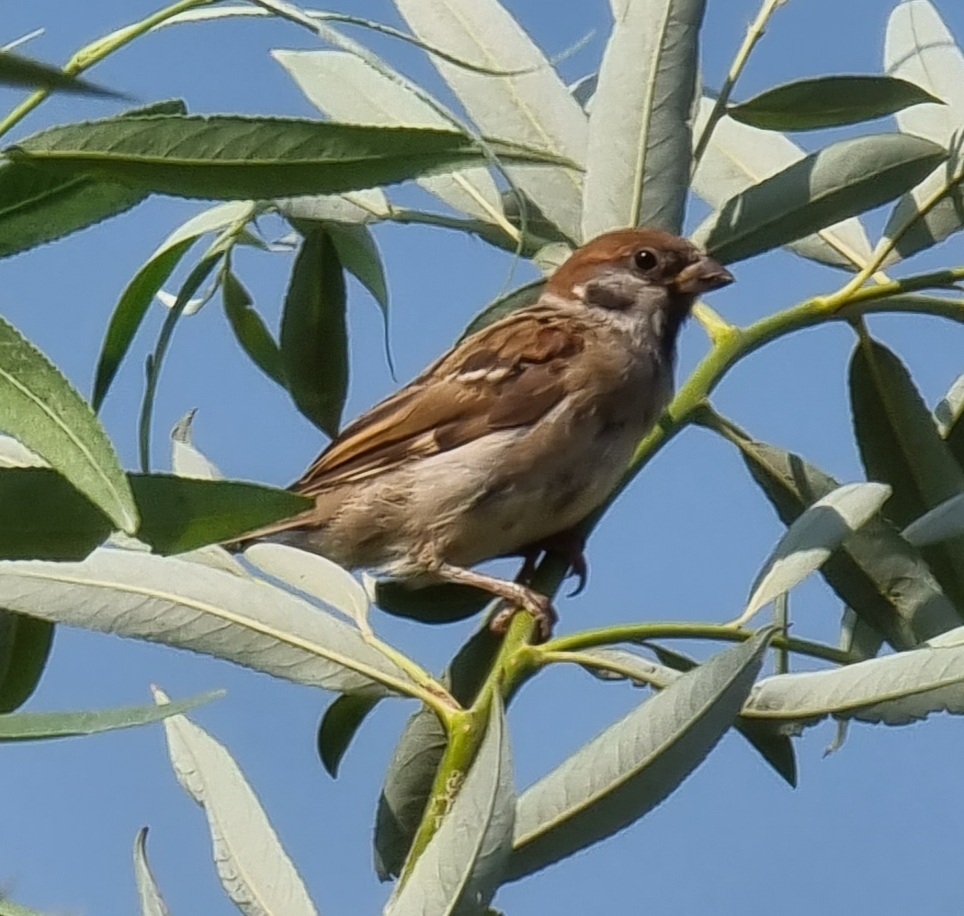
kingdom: Animalia
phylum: Chordata
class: Aves
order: Passeriformes
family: Passeridae
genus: Passer
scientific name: Passer montanus
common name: Eurasian tree sparrow
